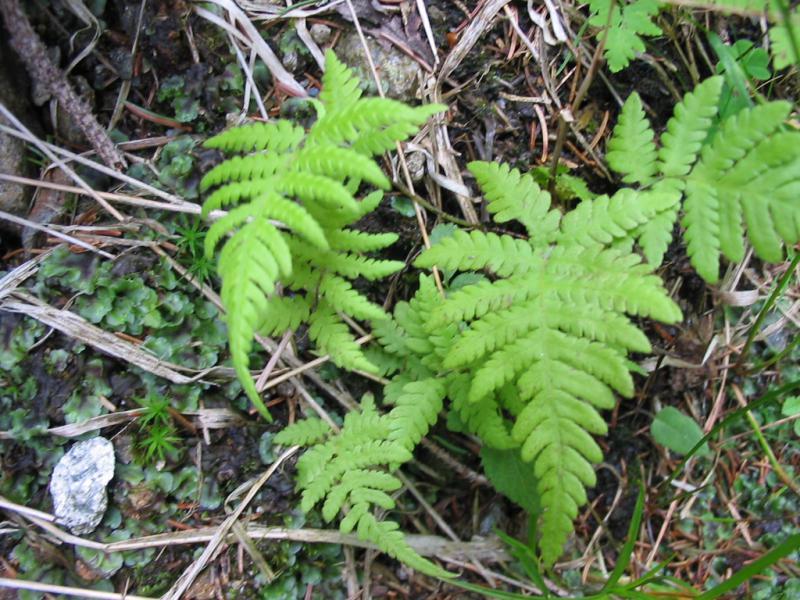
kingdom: Plantae
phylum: Tracheophyta
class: Polypodiopsida
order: Polypodiales
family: Thelypteridaceae
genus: Phegopteris
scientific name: Phegopteris connectilis
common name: Beech fern
